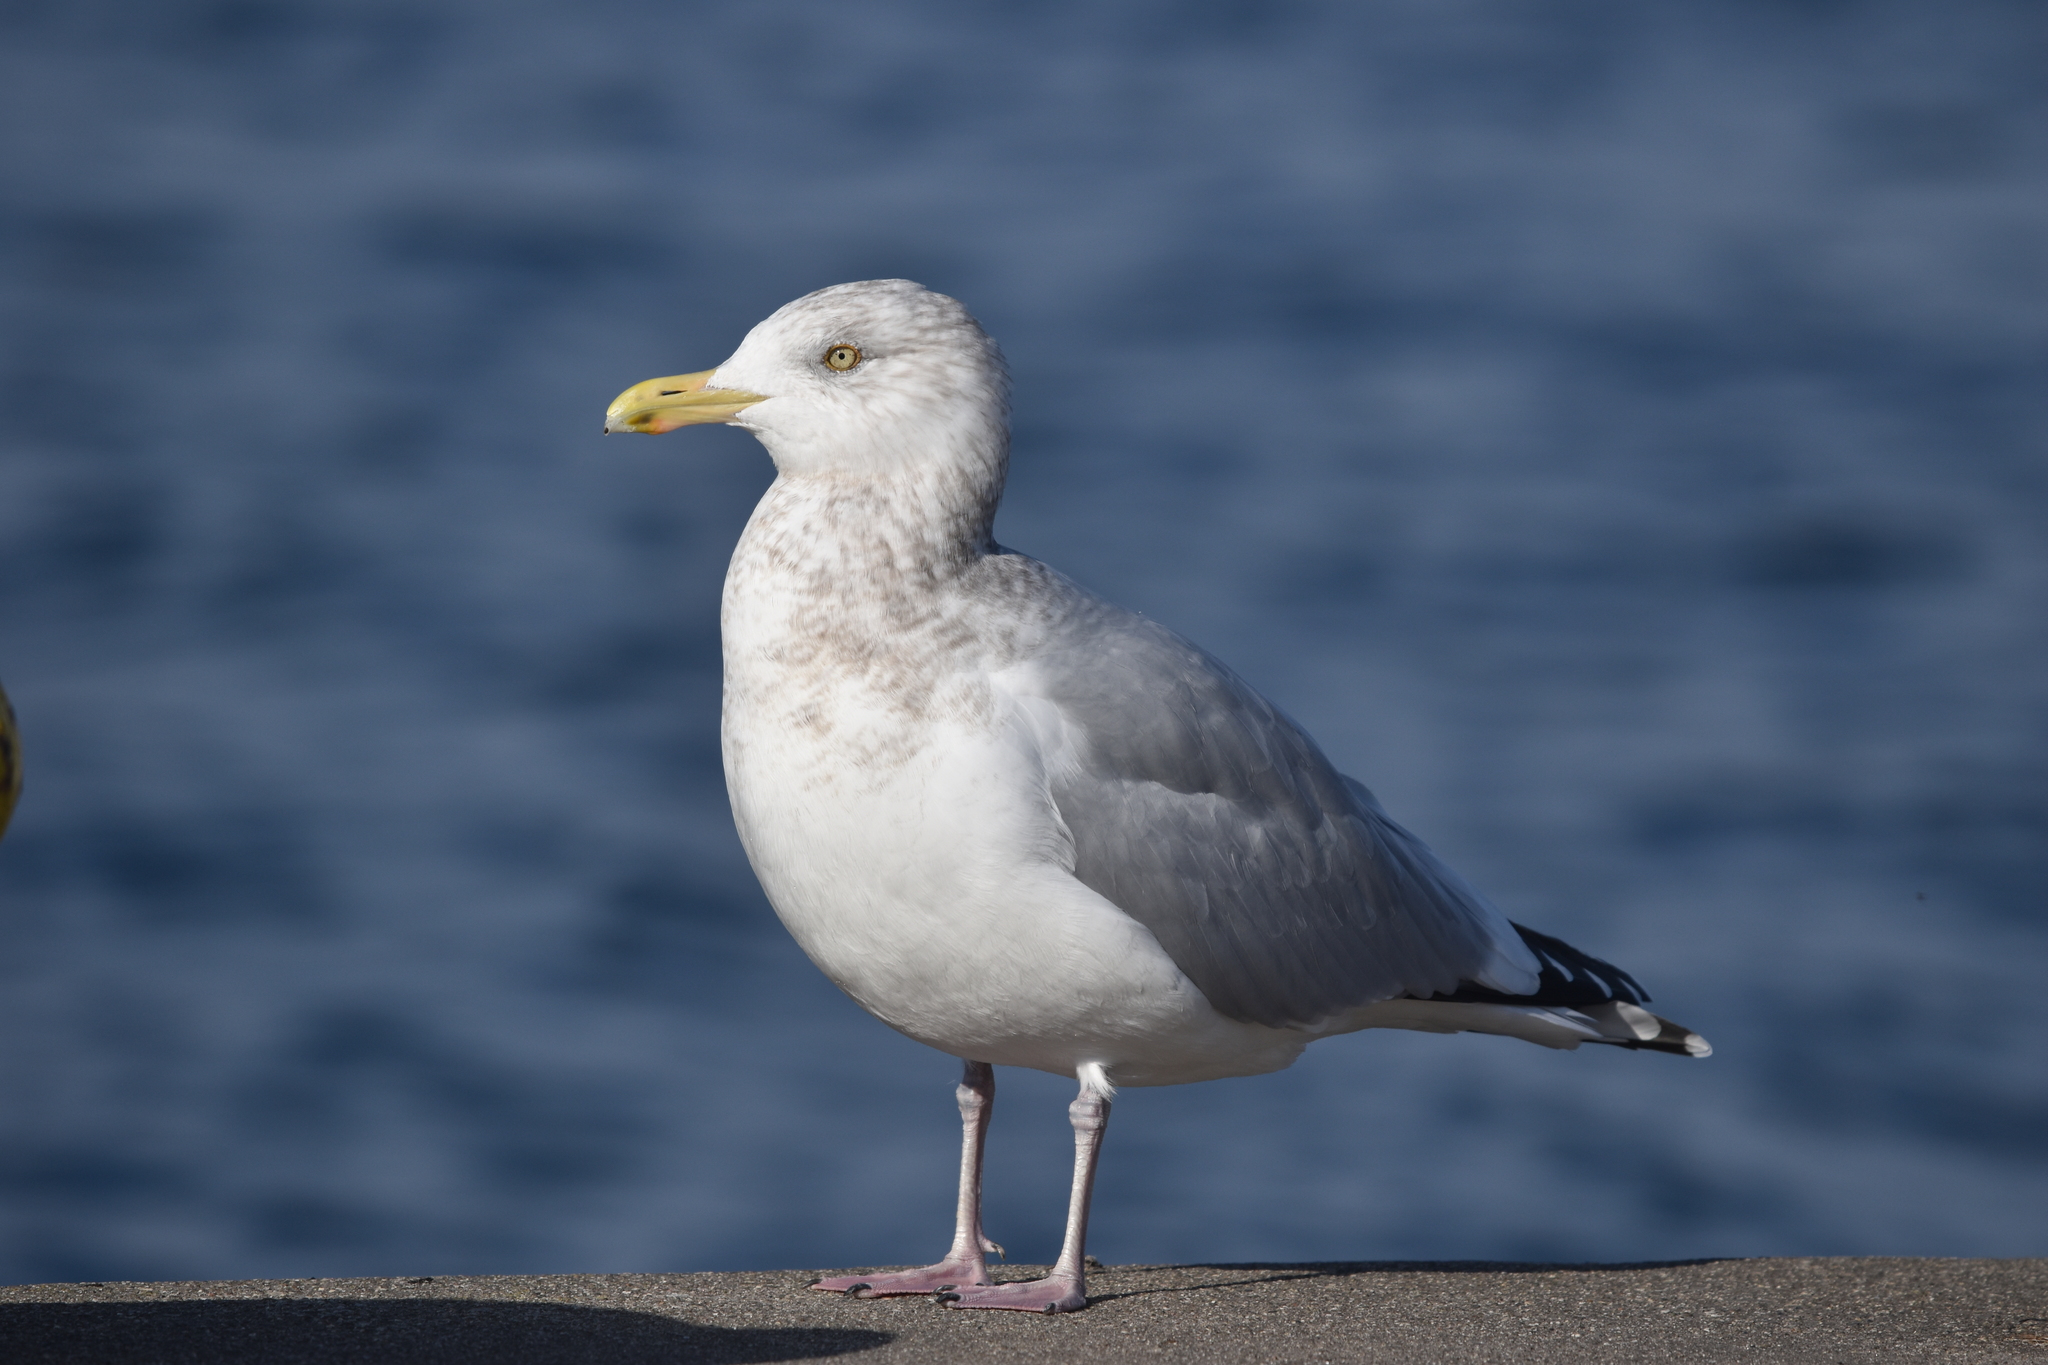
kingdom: Animalia
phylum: Chordata
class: Aves
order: Charadriiformes
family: Laridae
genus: Larus
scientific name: Larus argentatus
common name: Herring gull
